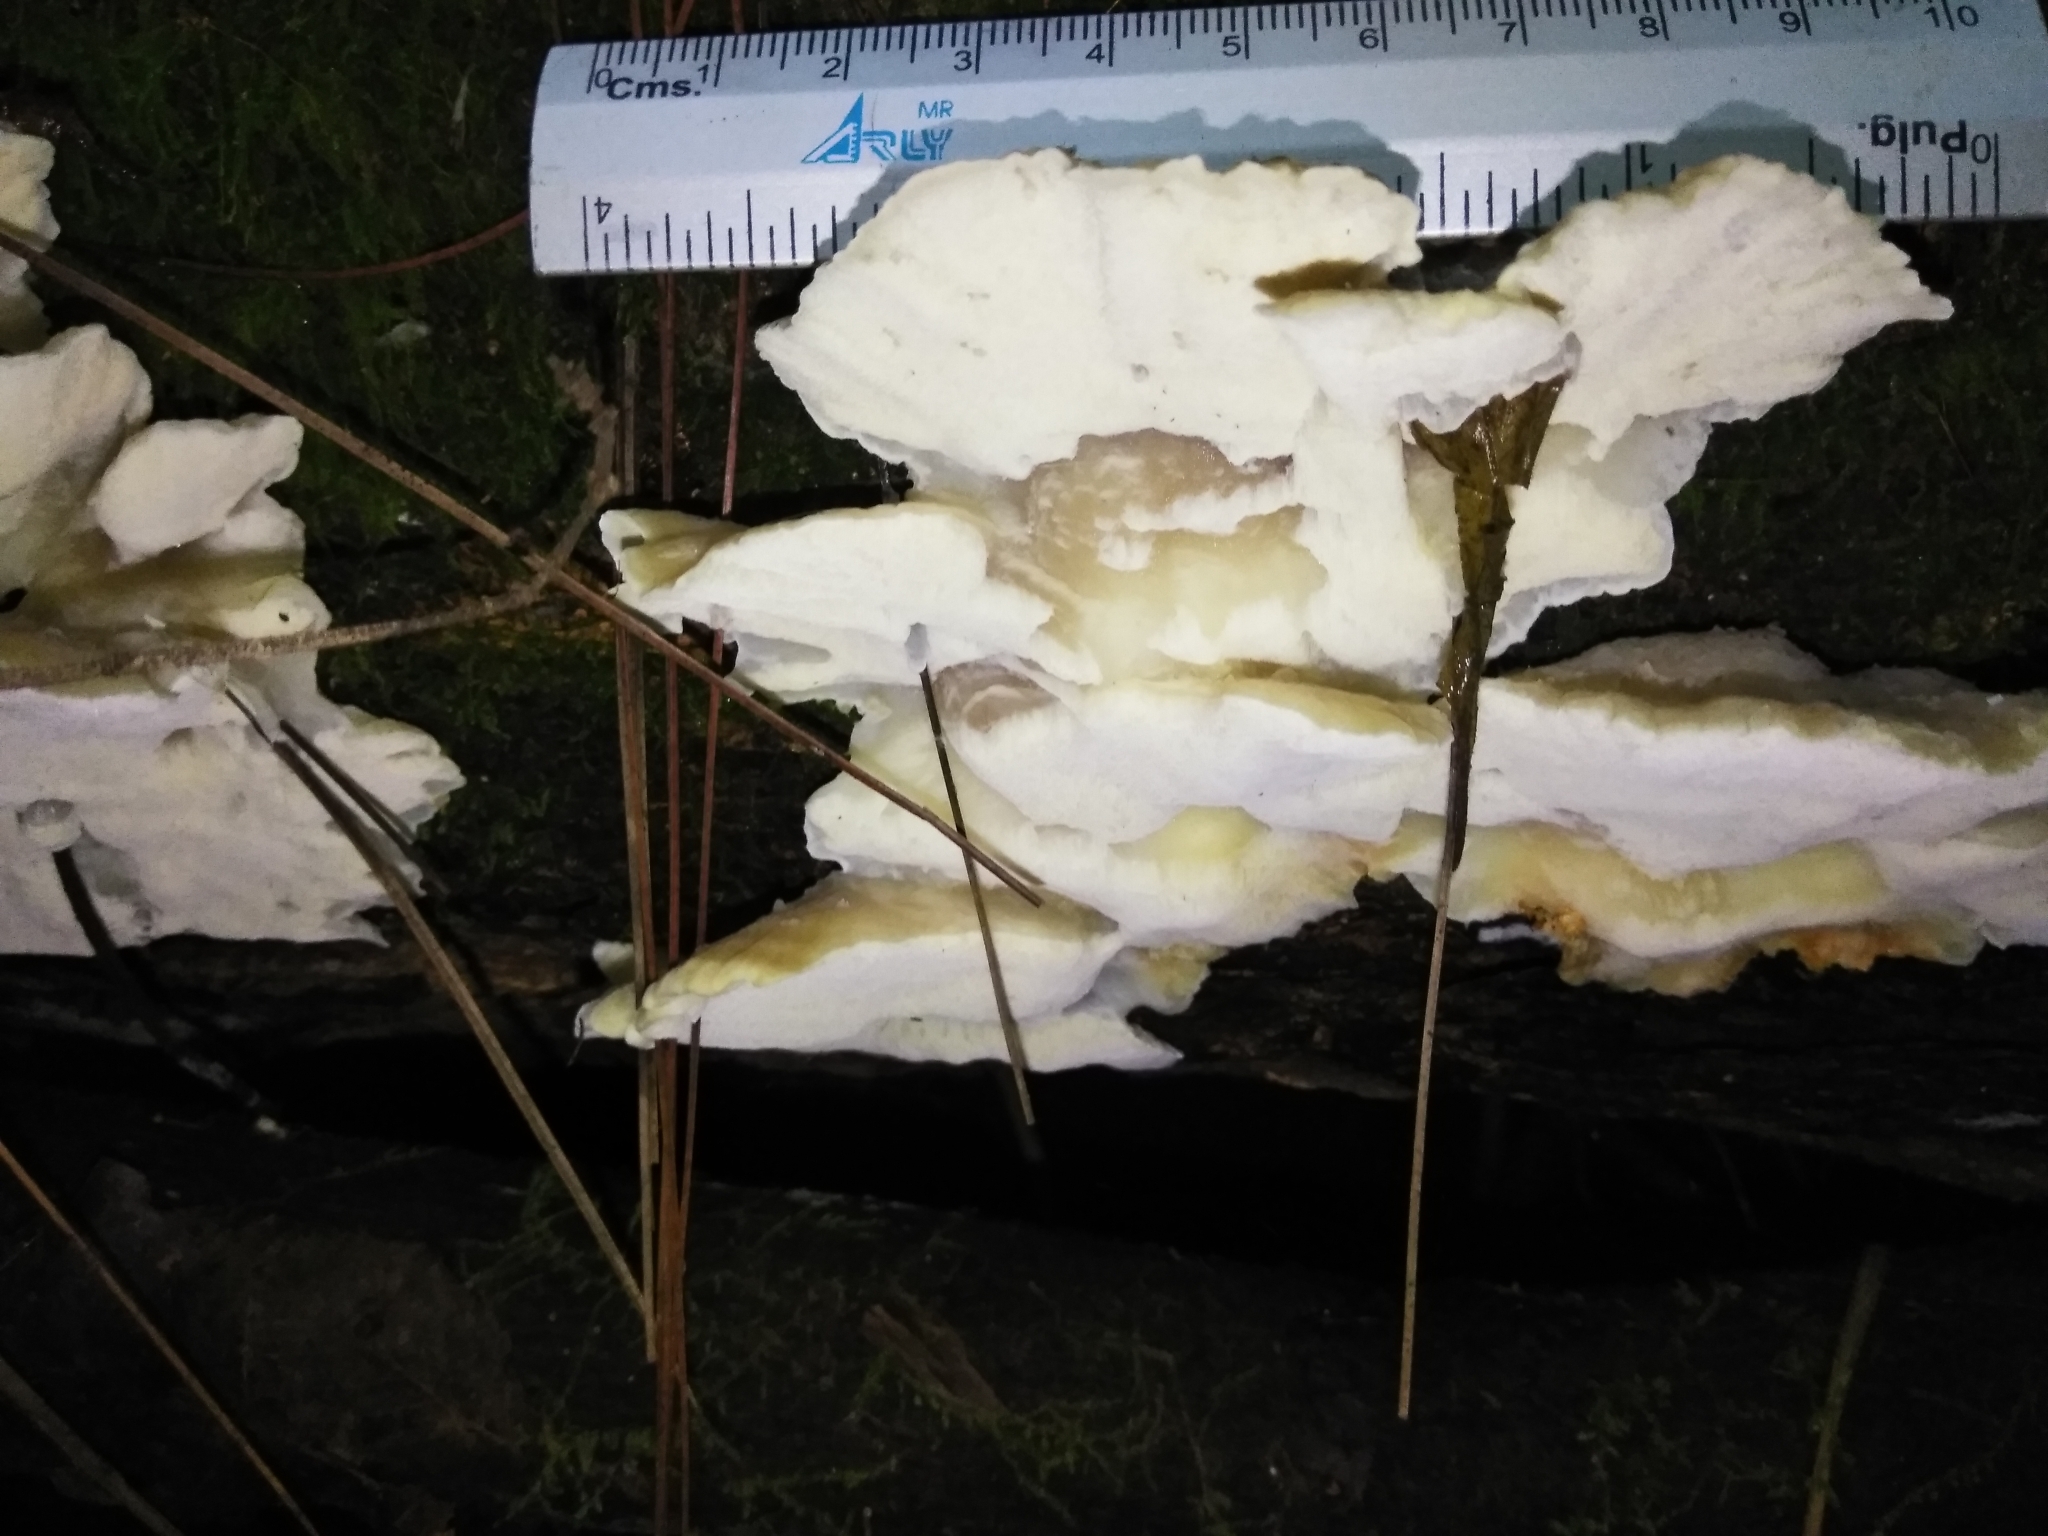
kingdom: Fungi
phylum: Basidiomycota
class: Agaricomycetes
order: Polyporales
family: Phanerochaetaceae
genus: Bjerkandera
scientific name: Bjerkandera fumosa
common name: Big smoky bracket
